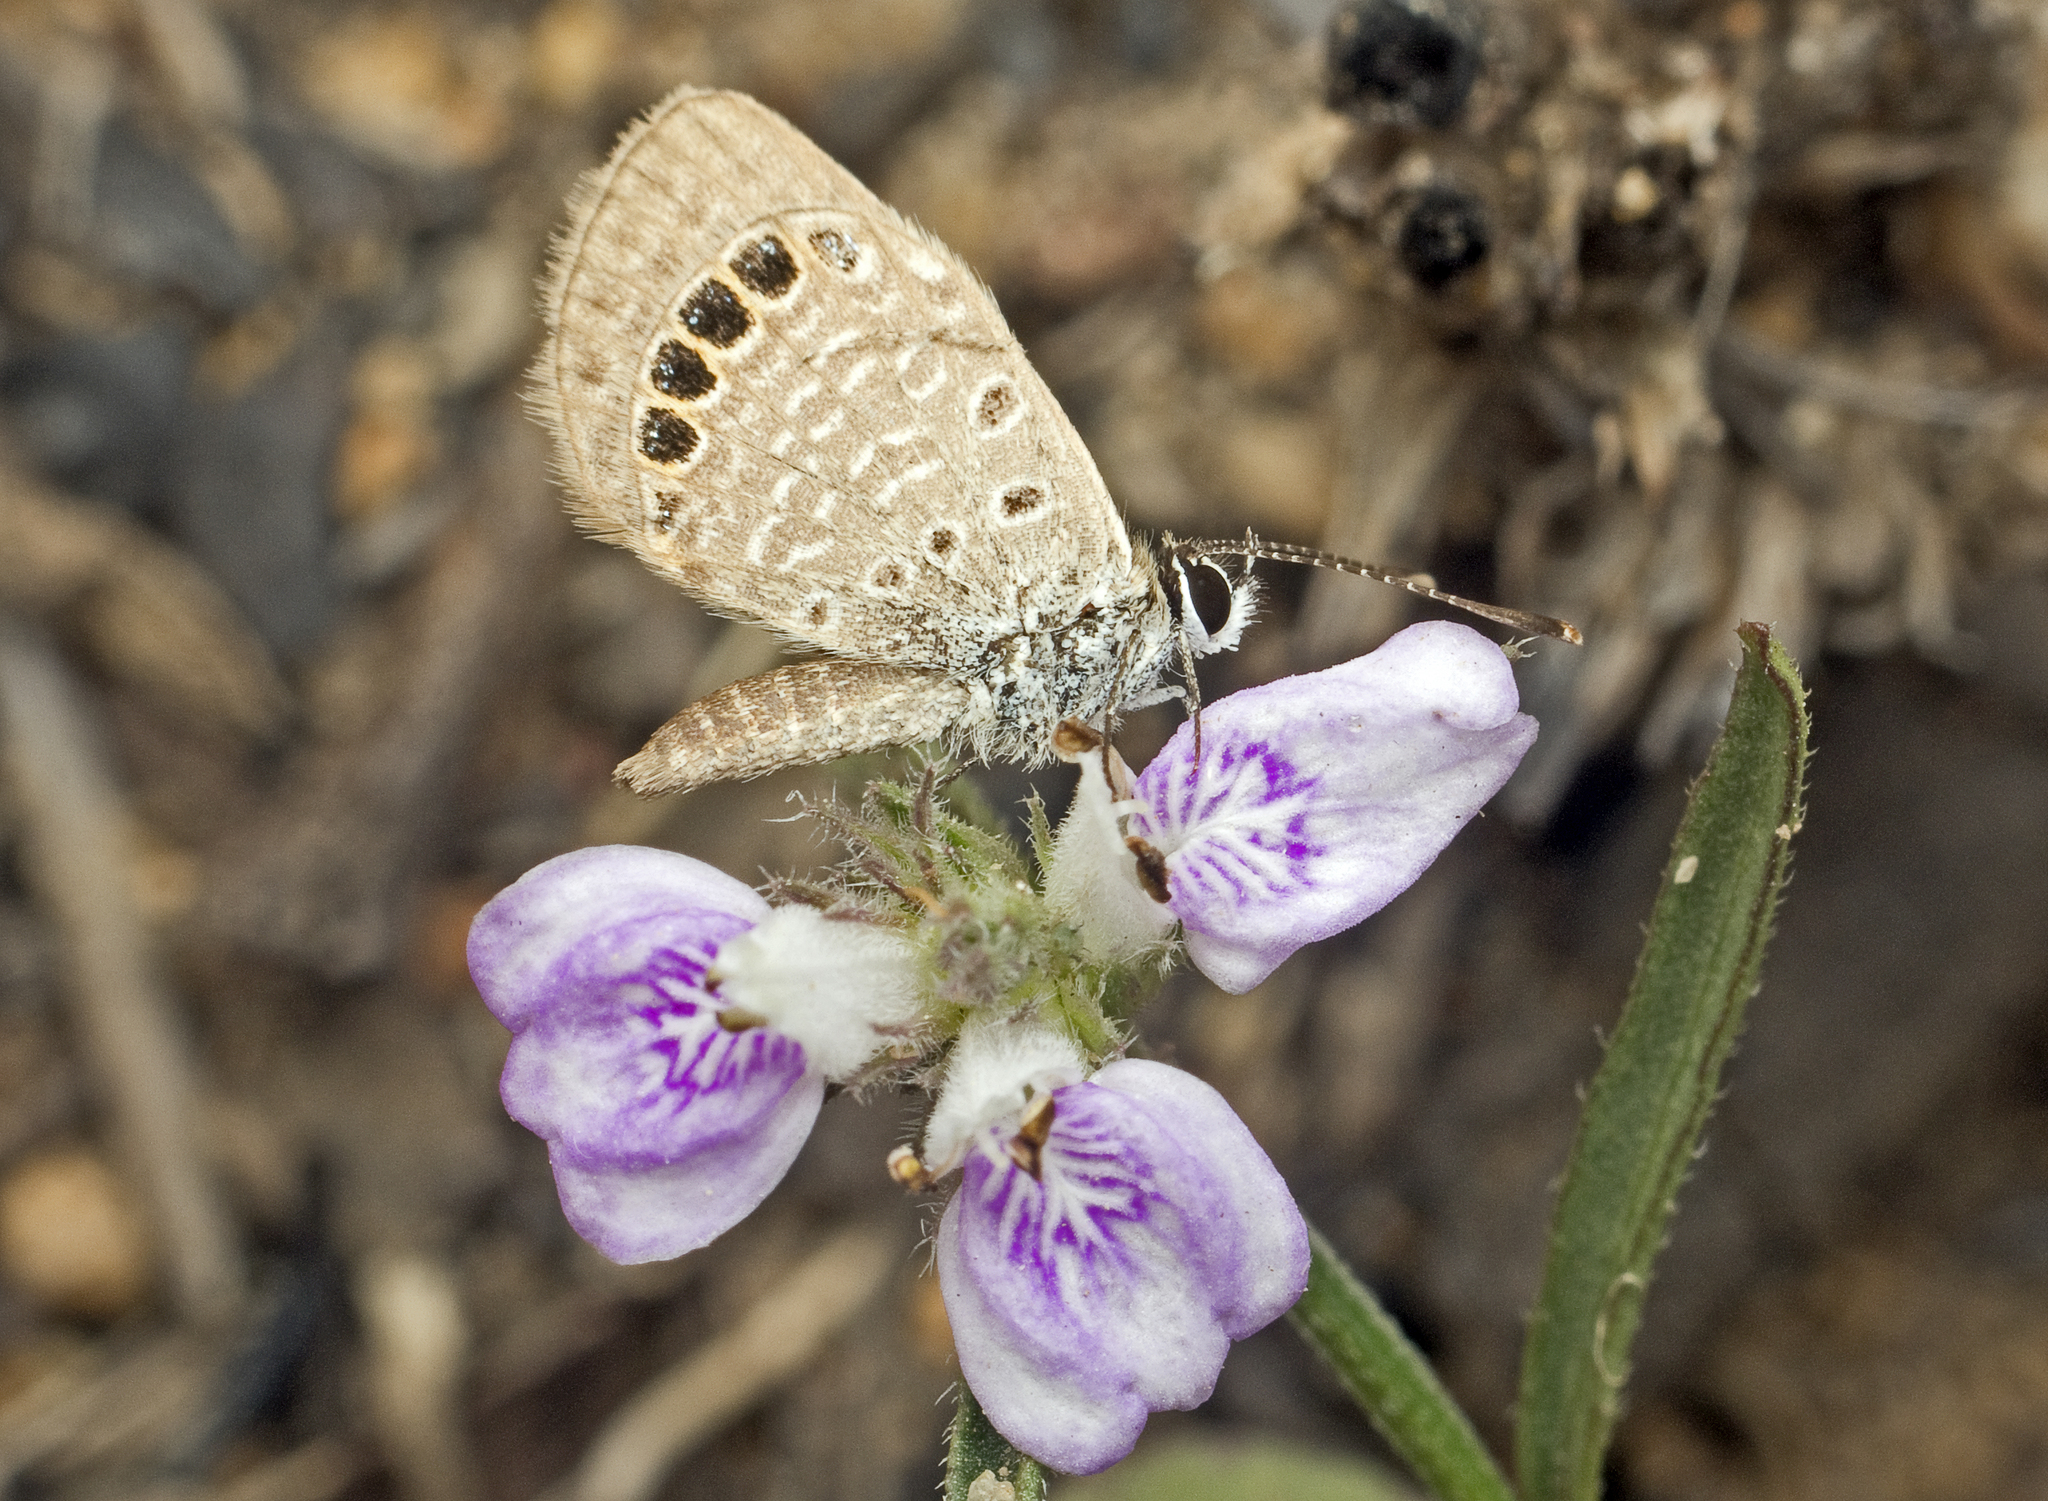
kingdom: Animalia
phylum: Arthropoda
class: Insecta
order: Lepidoptera
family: Lycaenidae
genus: Freyeria
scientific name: Freyeria putli
